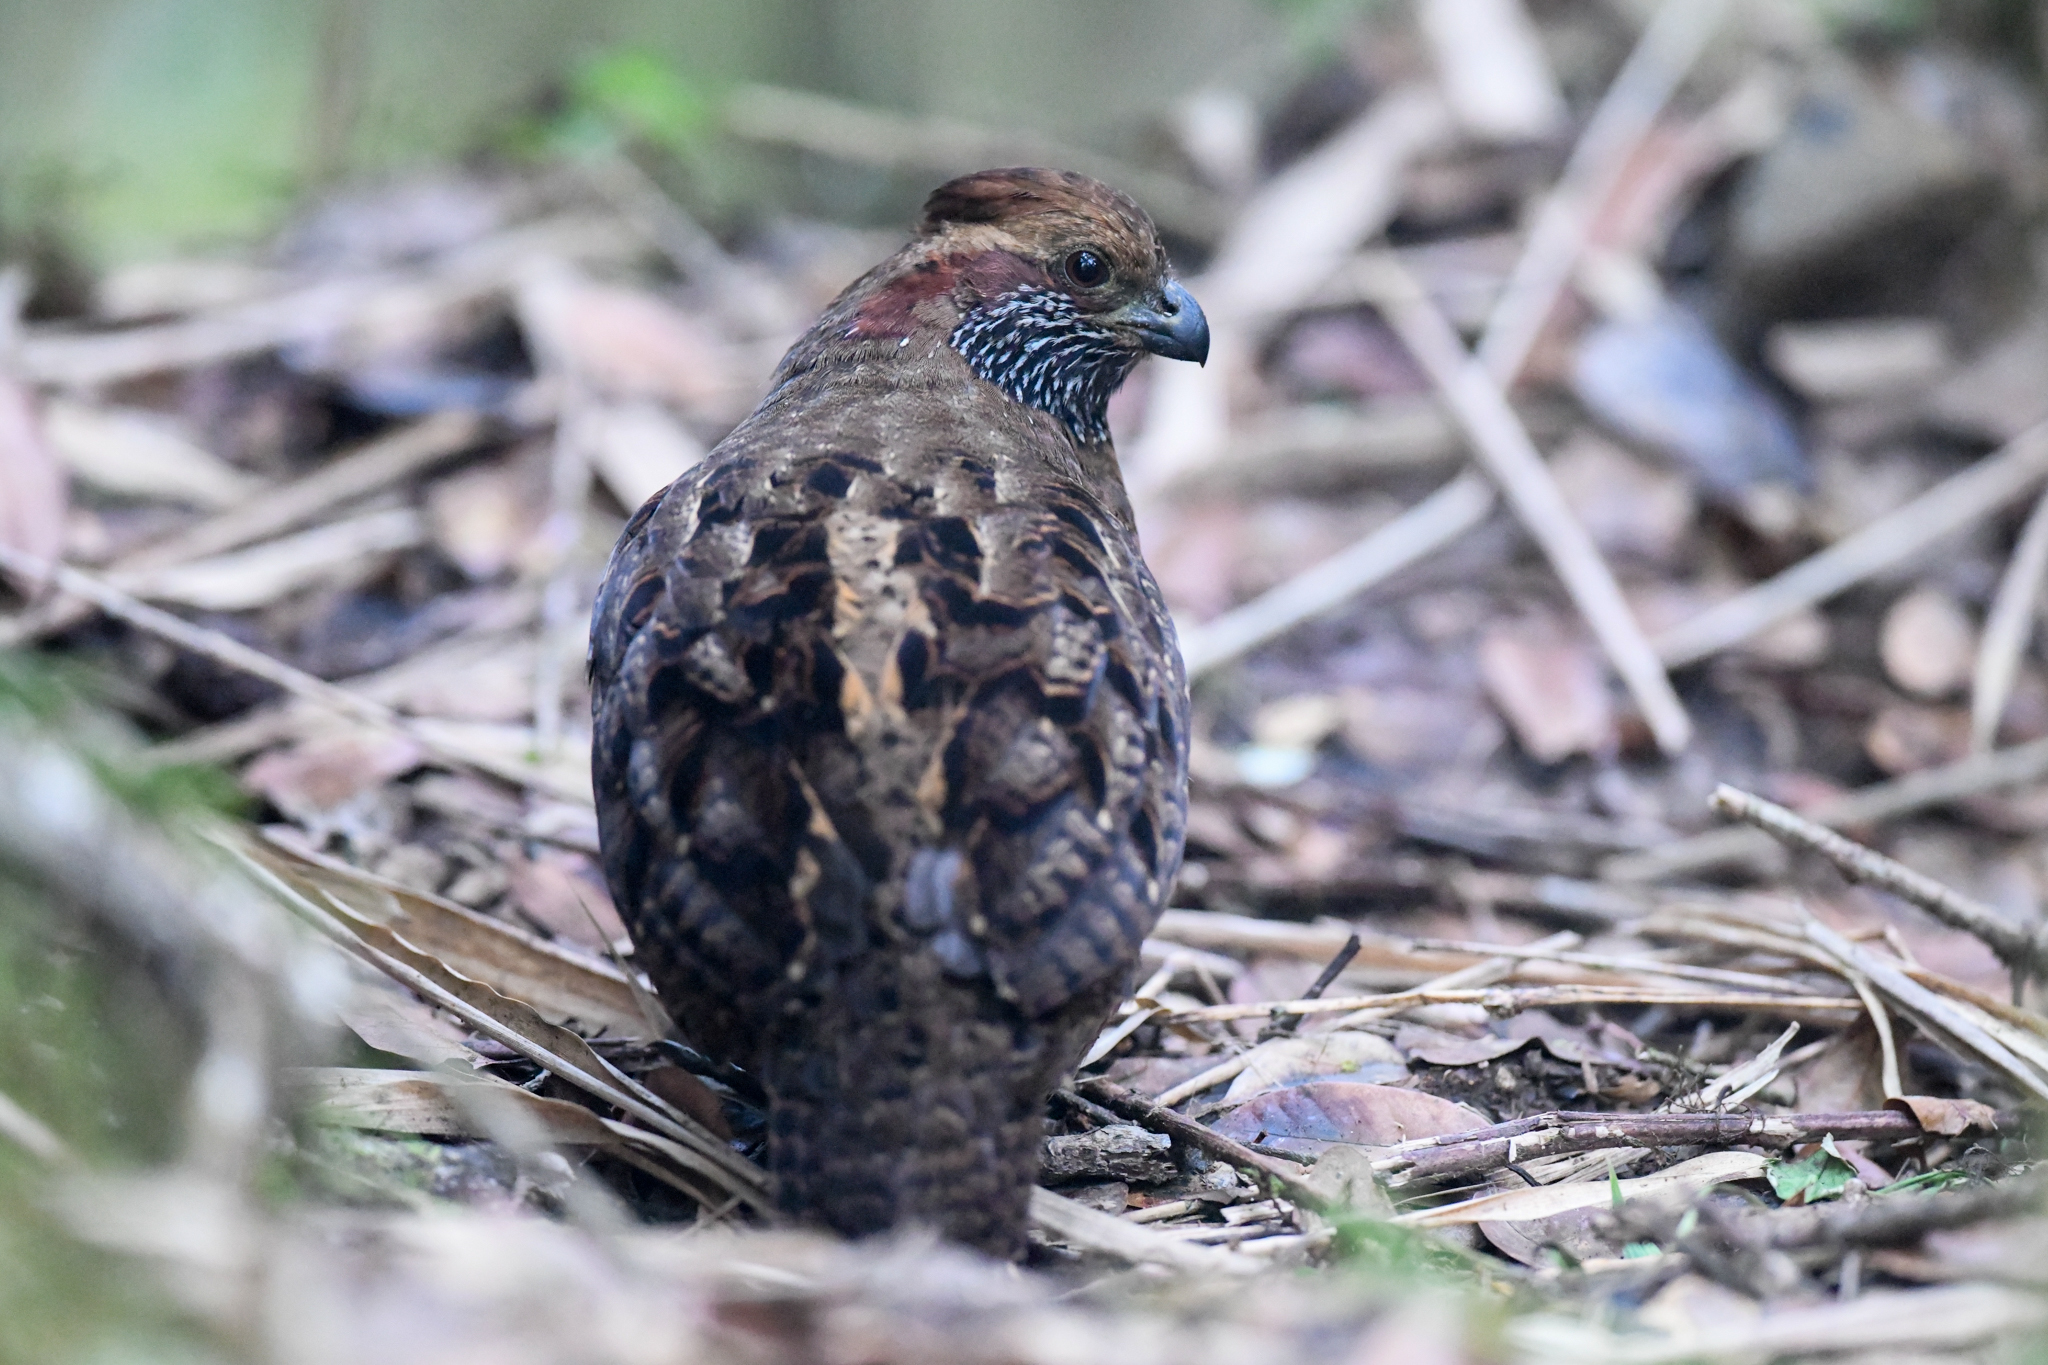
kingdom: Animalia
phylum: Chordata
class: Aves
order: Galliformes
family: Odontophoridae
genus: Odontophorus
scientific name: Odontophorus guttatus
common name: Spotted wood-quail
